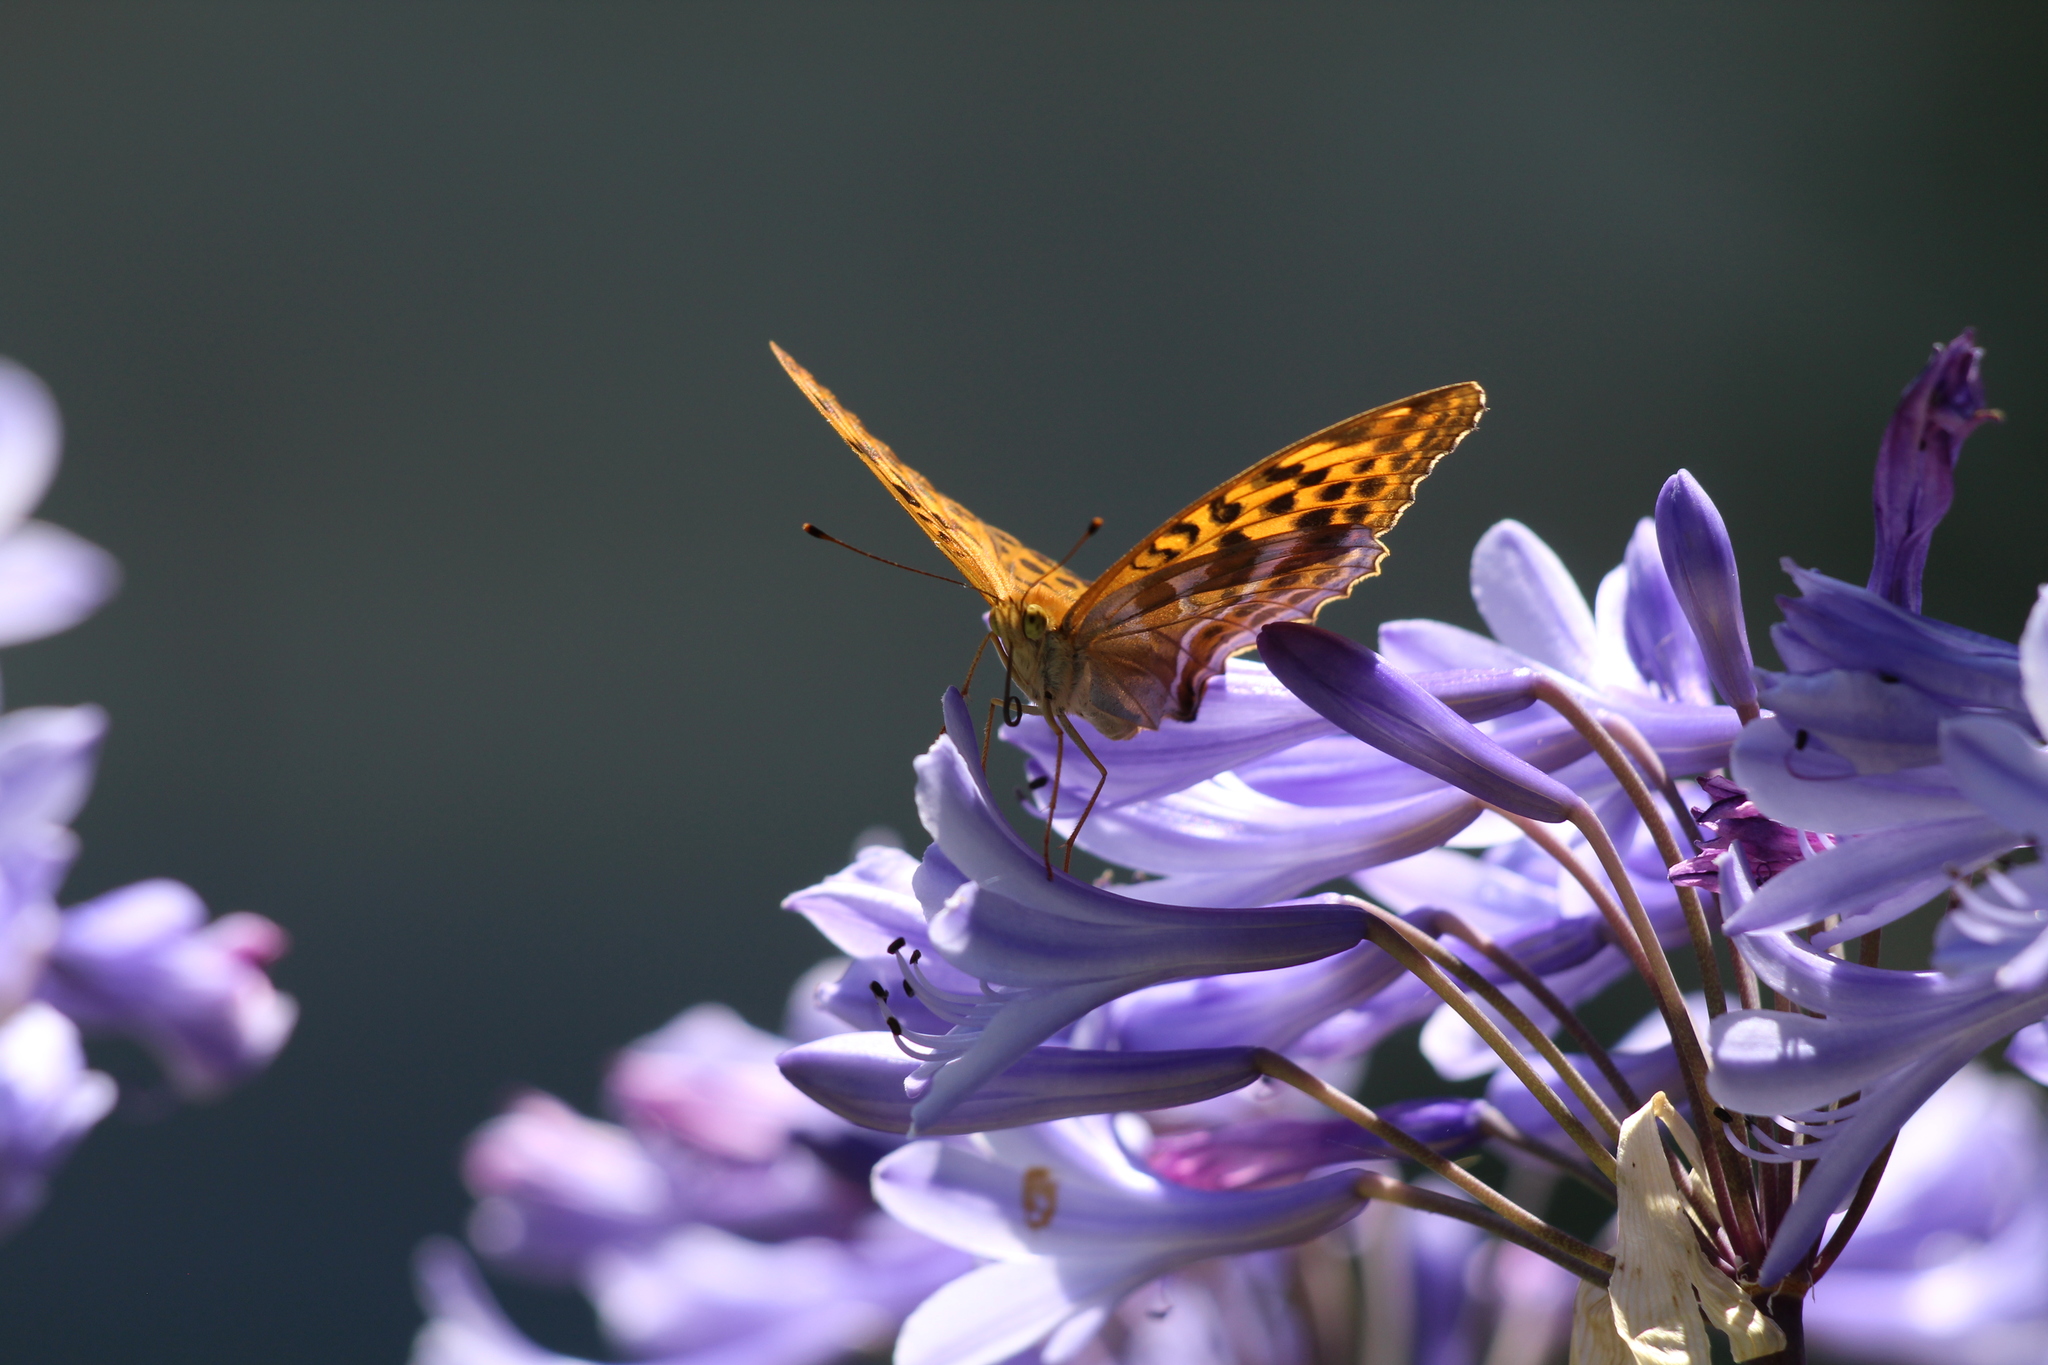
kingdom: Animalia
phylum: Arthropoda
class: Insecta
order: Lepidoptera
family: Nymphalidae
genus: Argynnis
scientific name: Argynnis paphia
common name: Silver-washed fritillary
